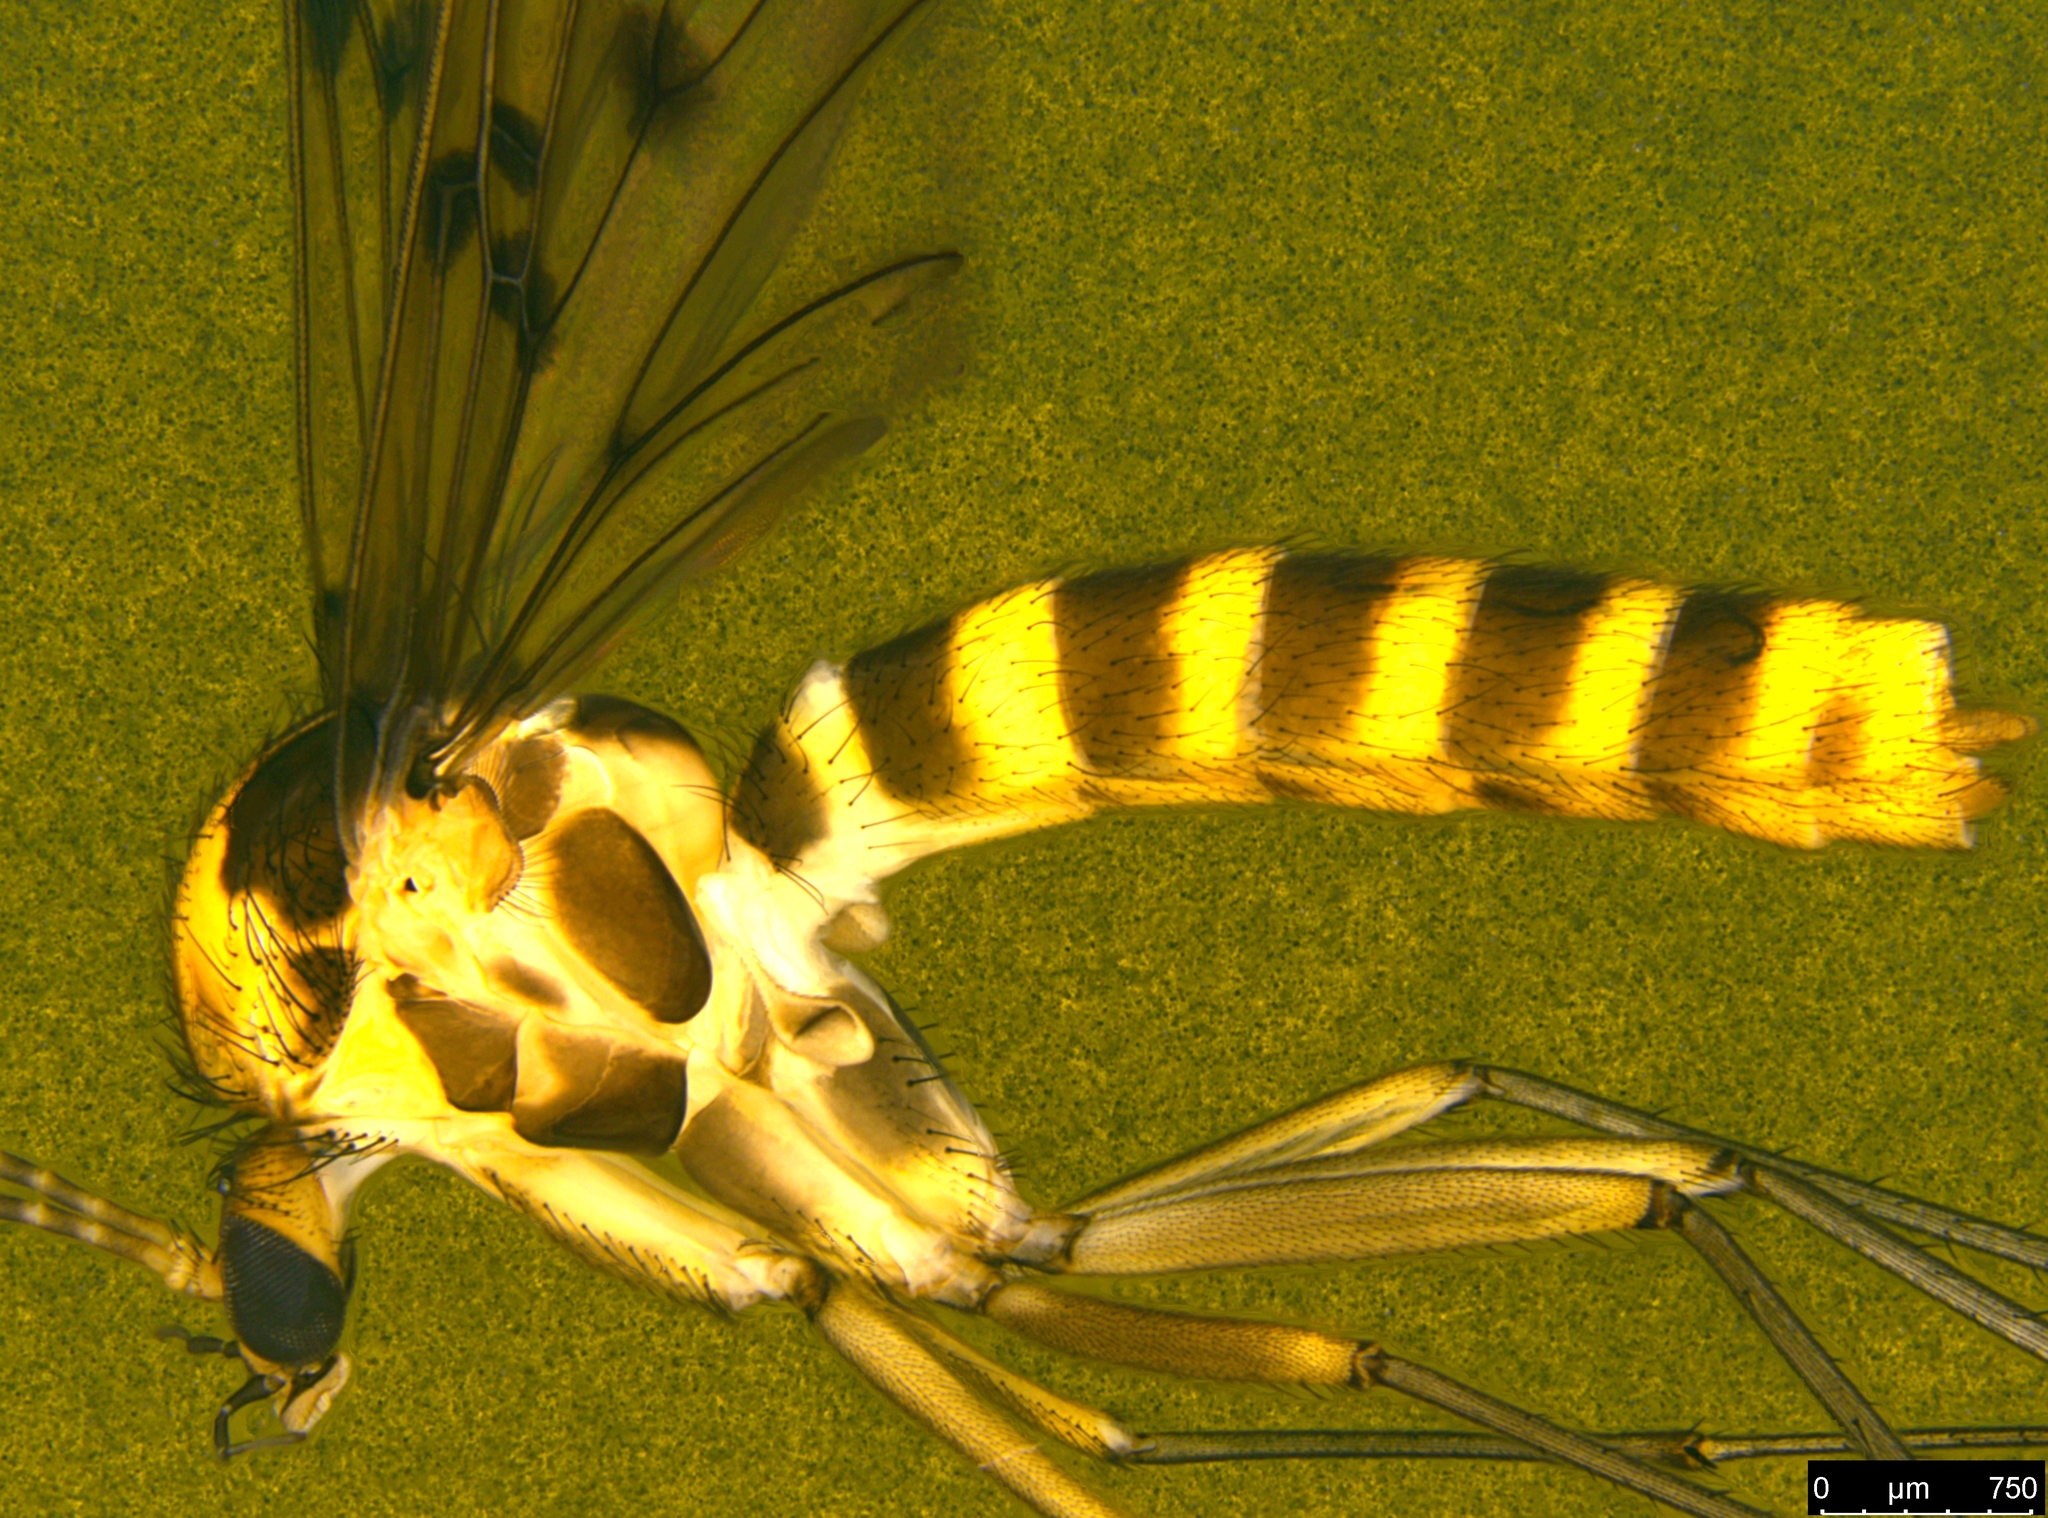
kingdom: Animalia
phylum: Arthropoda
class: Insecta
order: Diptera
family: Mycetophilidae
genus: Mycomya
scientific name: Mycomya quadrimaculata
